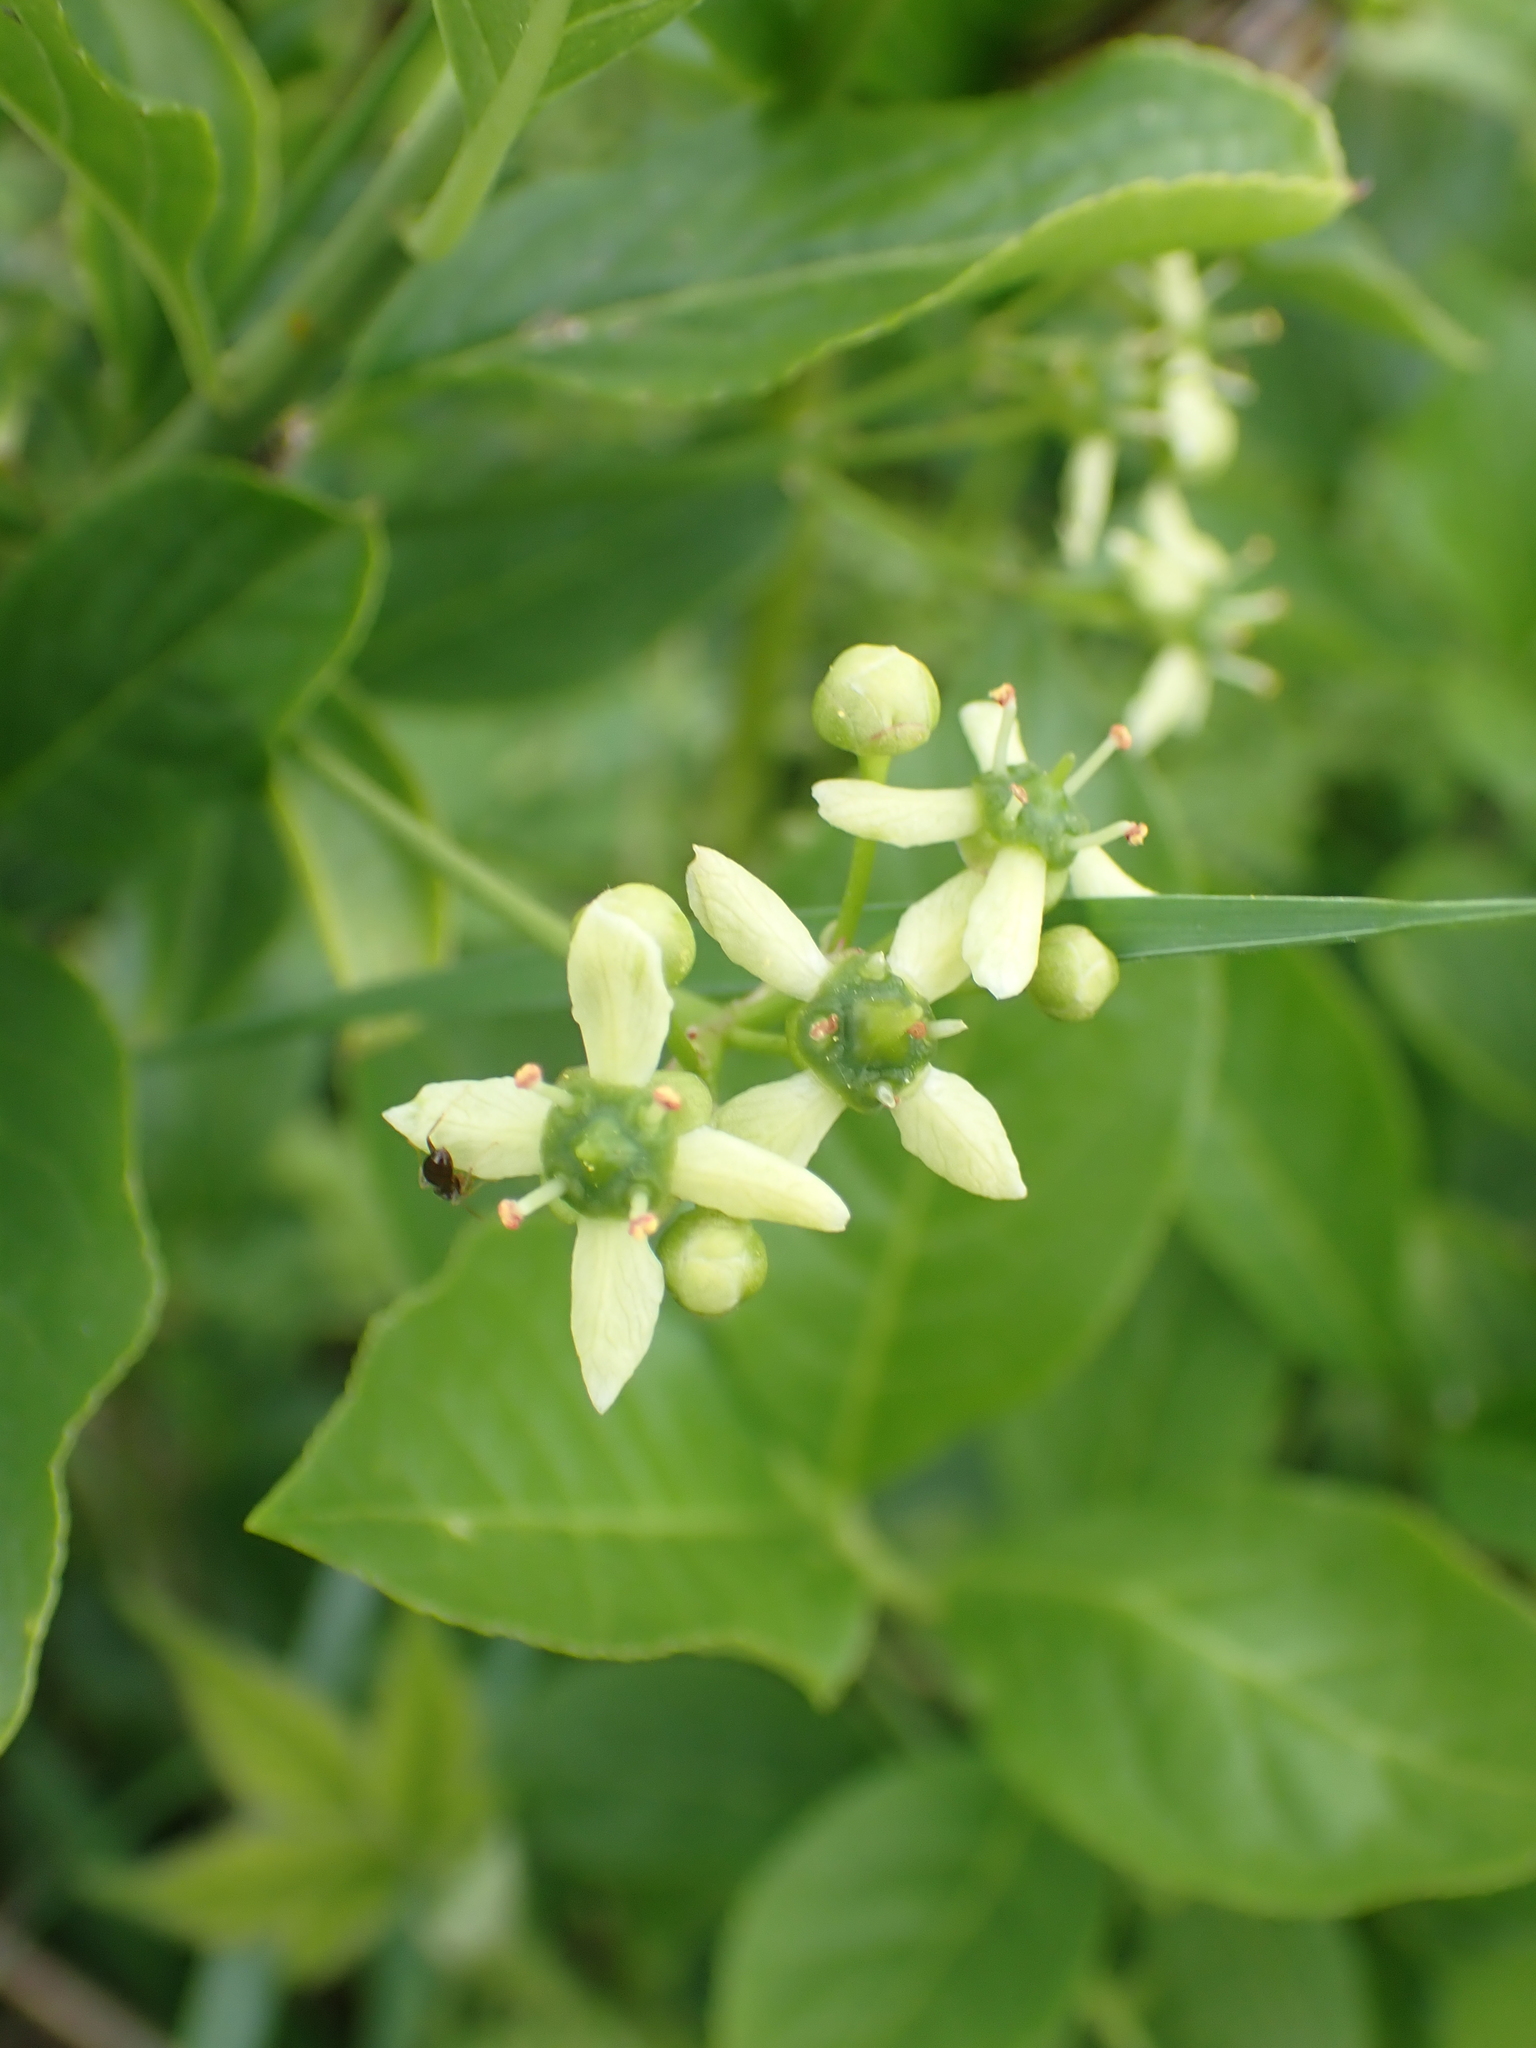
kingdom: Plantae
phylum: Tracheophyta
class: Magnoliopsida
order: Celastrales
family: Celastraceae
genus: Euonymus
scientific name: Euonymus europaeus
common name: Spindle
